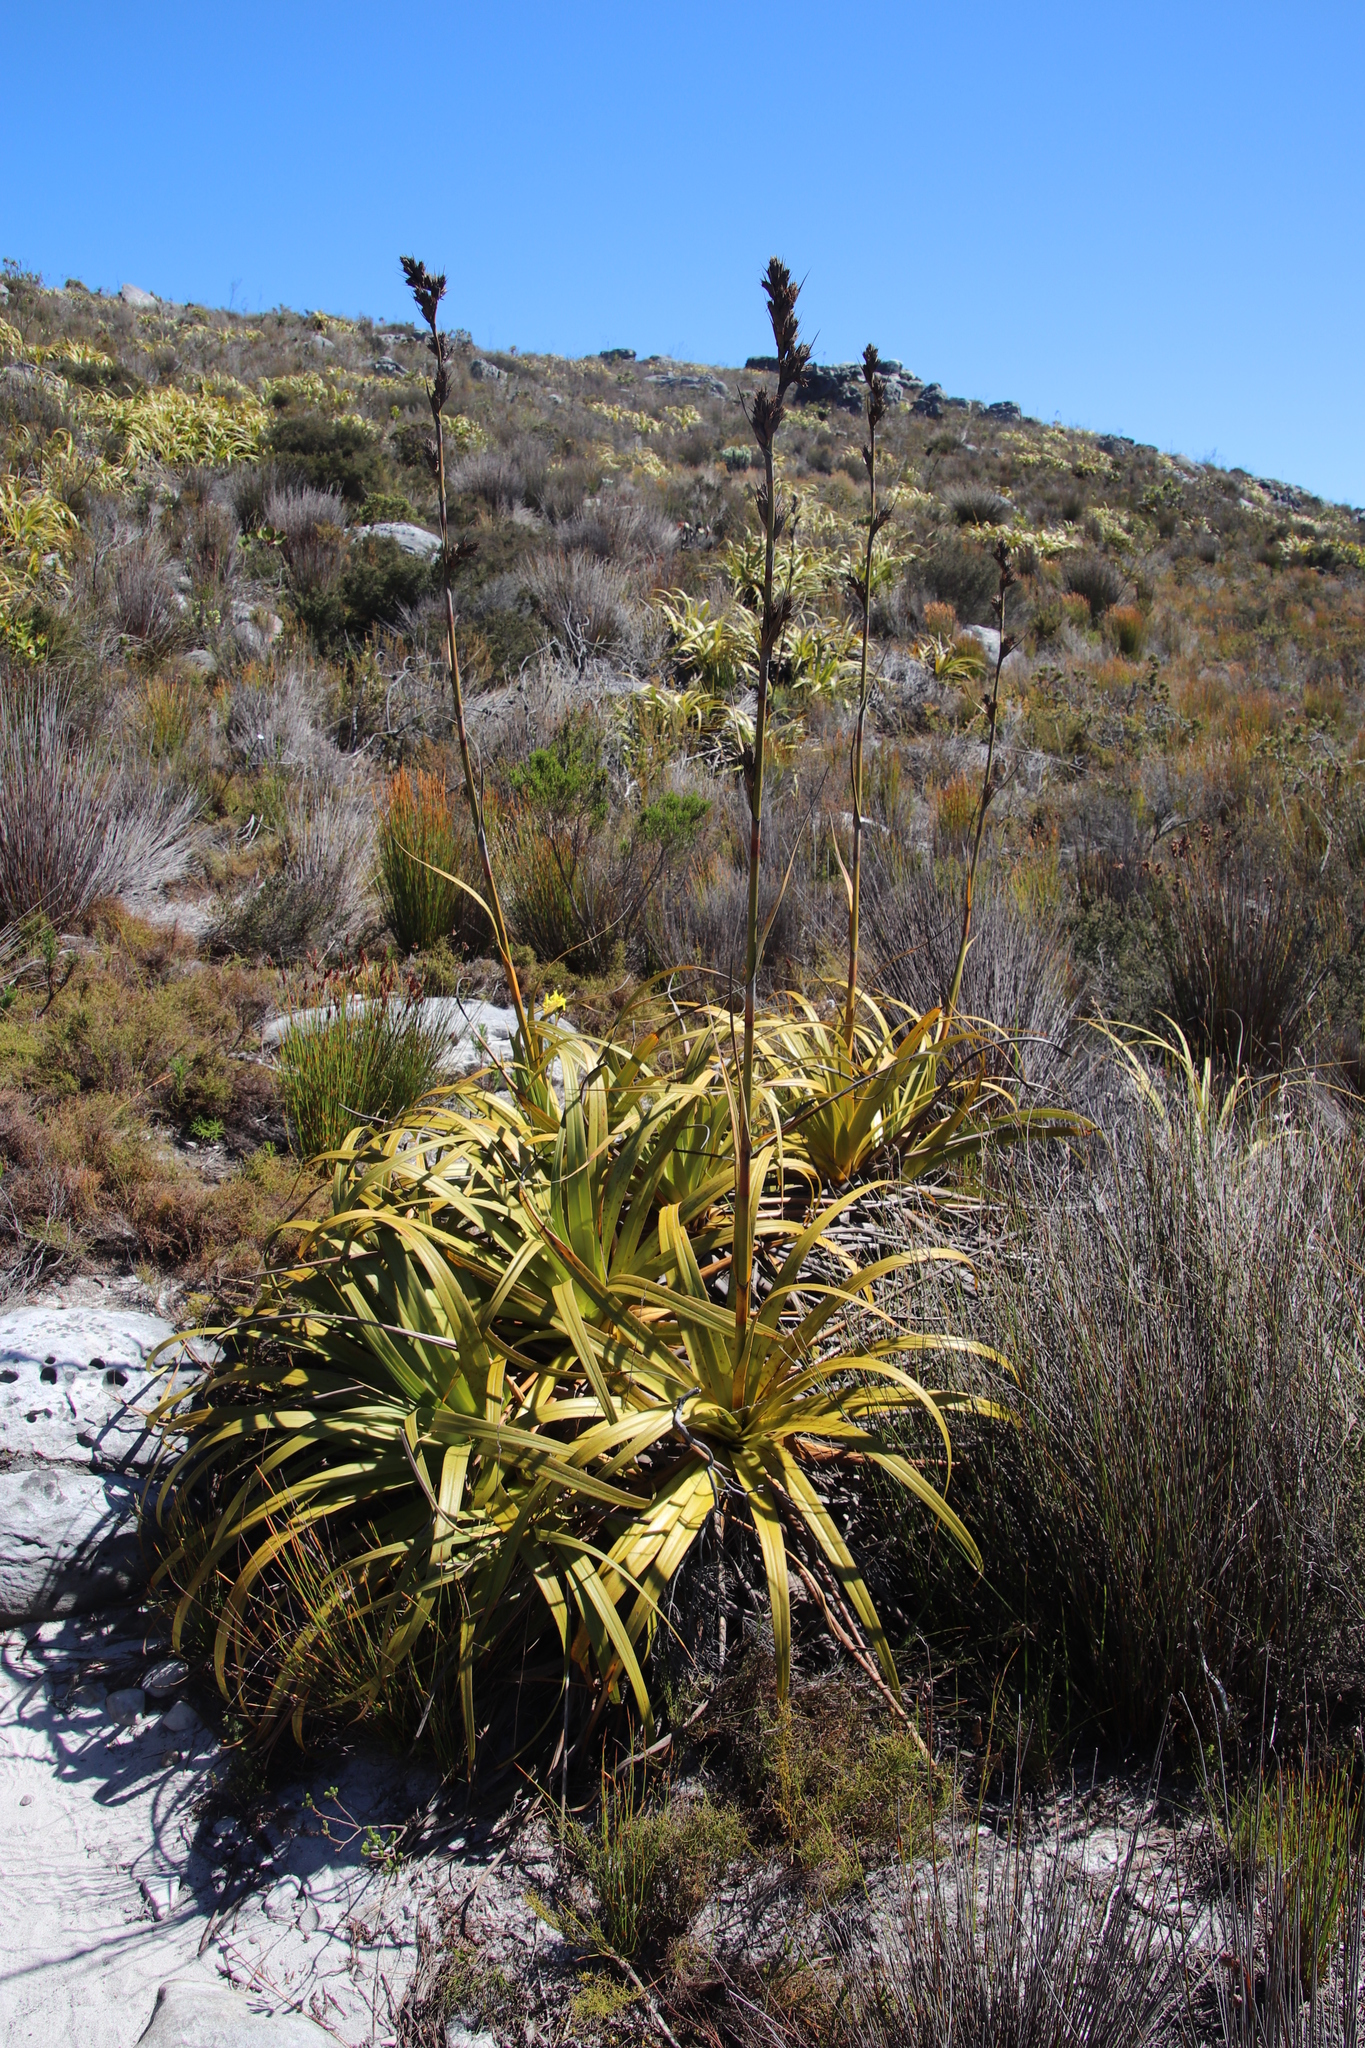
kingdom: Plantae
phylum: Tracheophyta
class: Liliopsida
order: Poales
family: Cyperaceae
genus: Tetraria
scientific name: Tetraria thermalis
